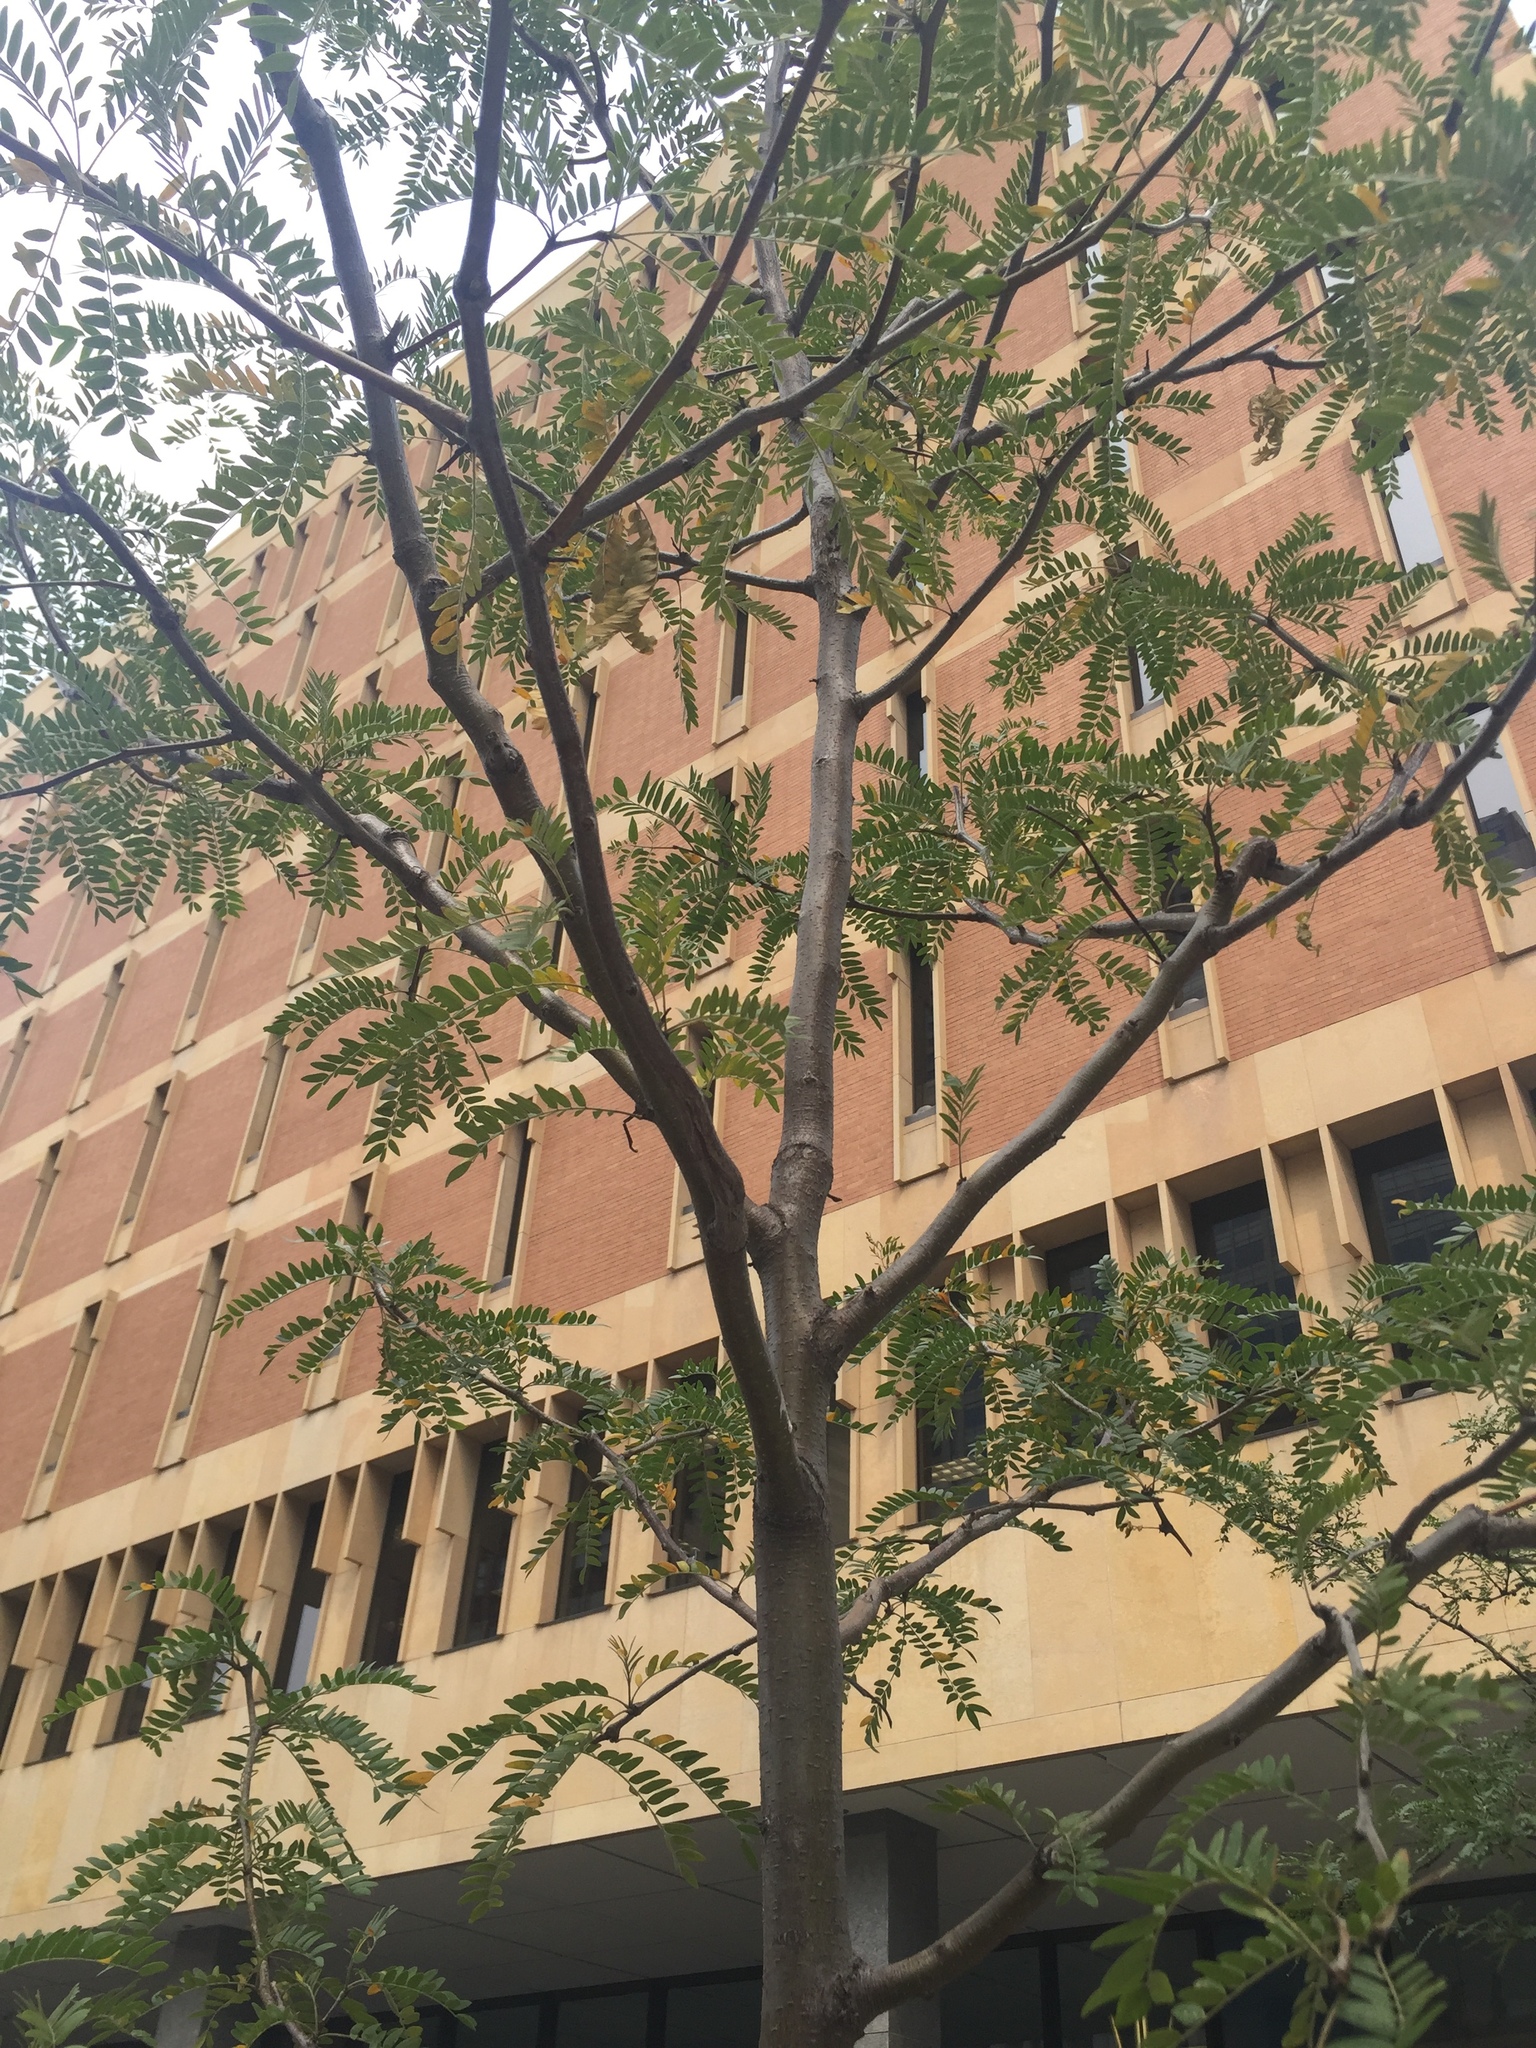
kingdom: Plantae
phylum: Tracheophyta
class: Magnoliopsida
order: Fabales
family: Fabaceae
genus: Gleditsia
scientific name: Gleditsia triacanthos
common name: Common honeylocust
